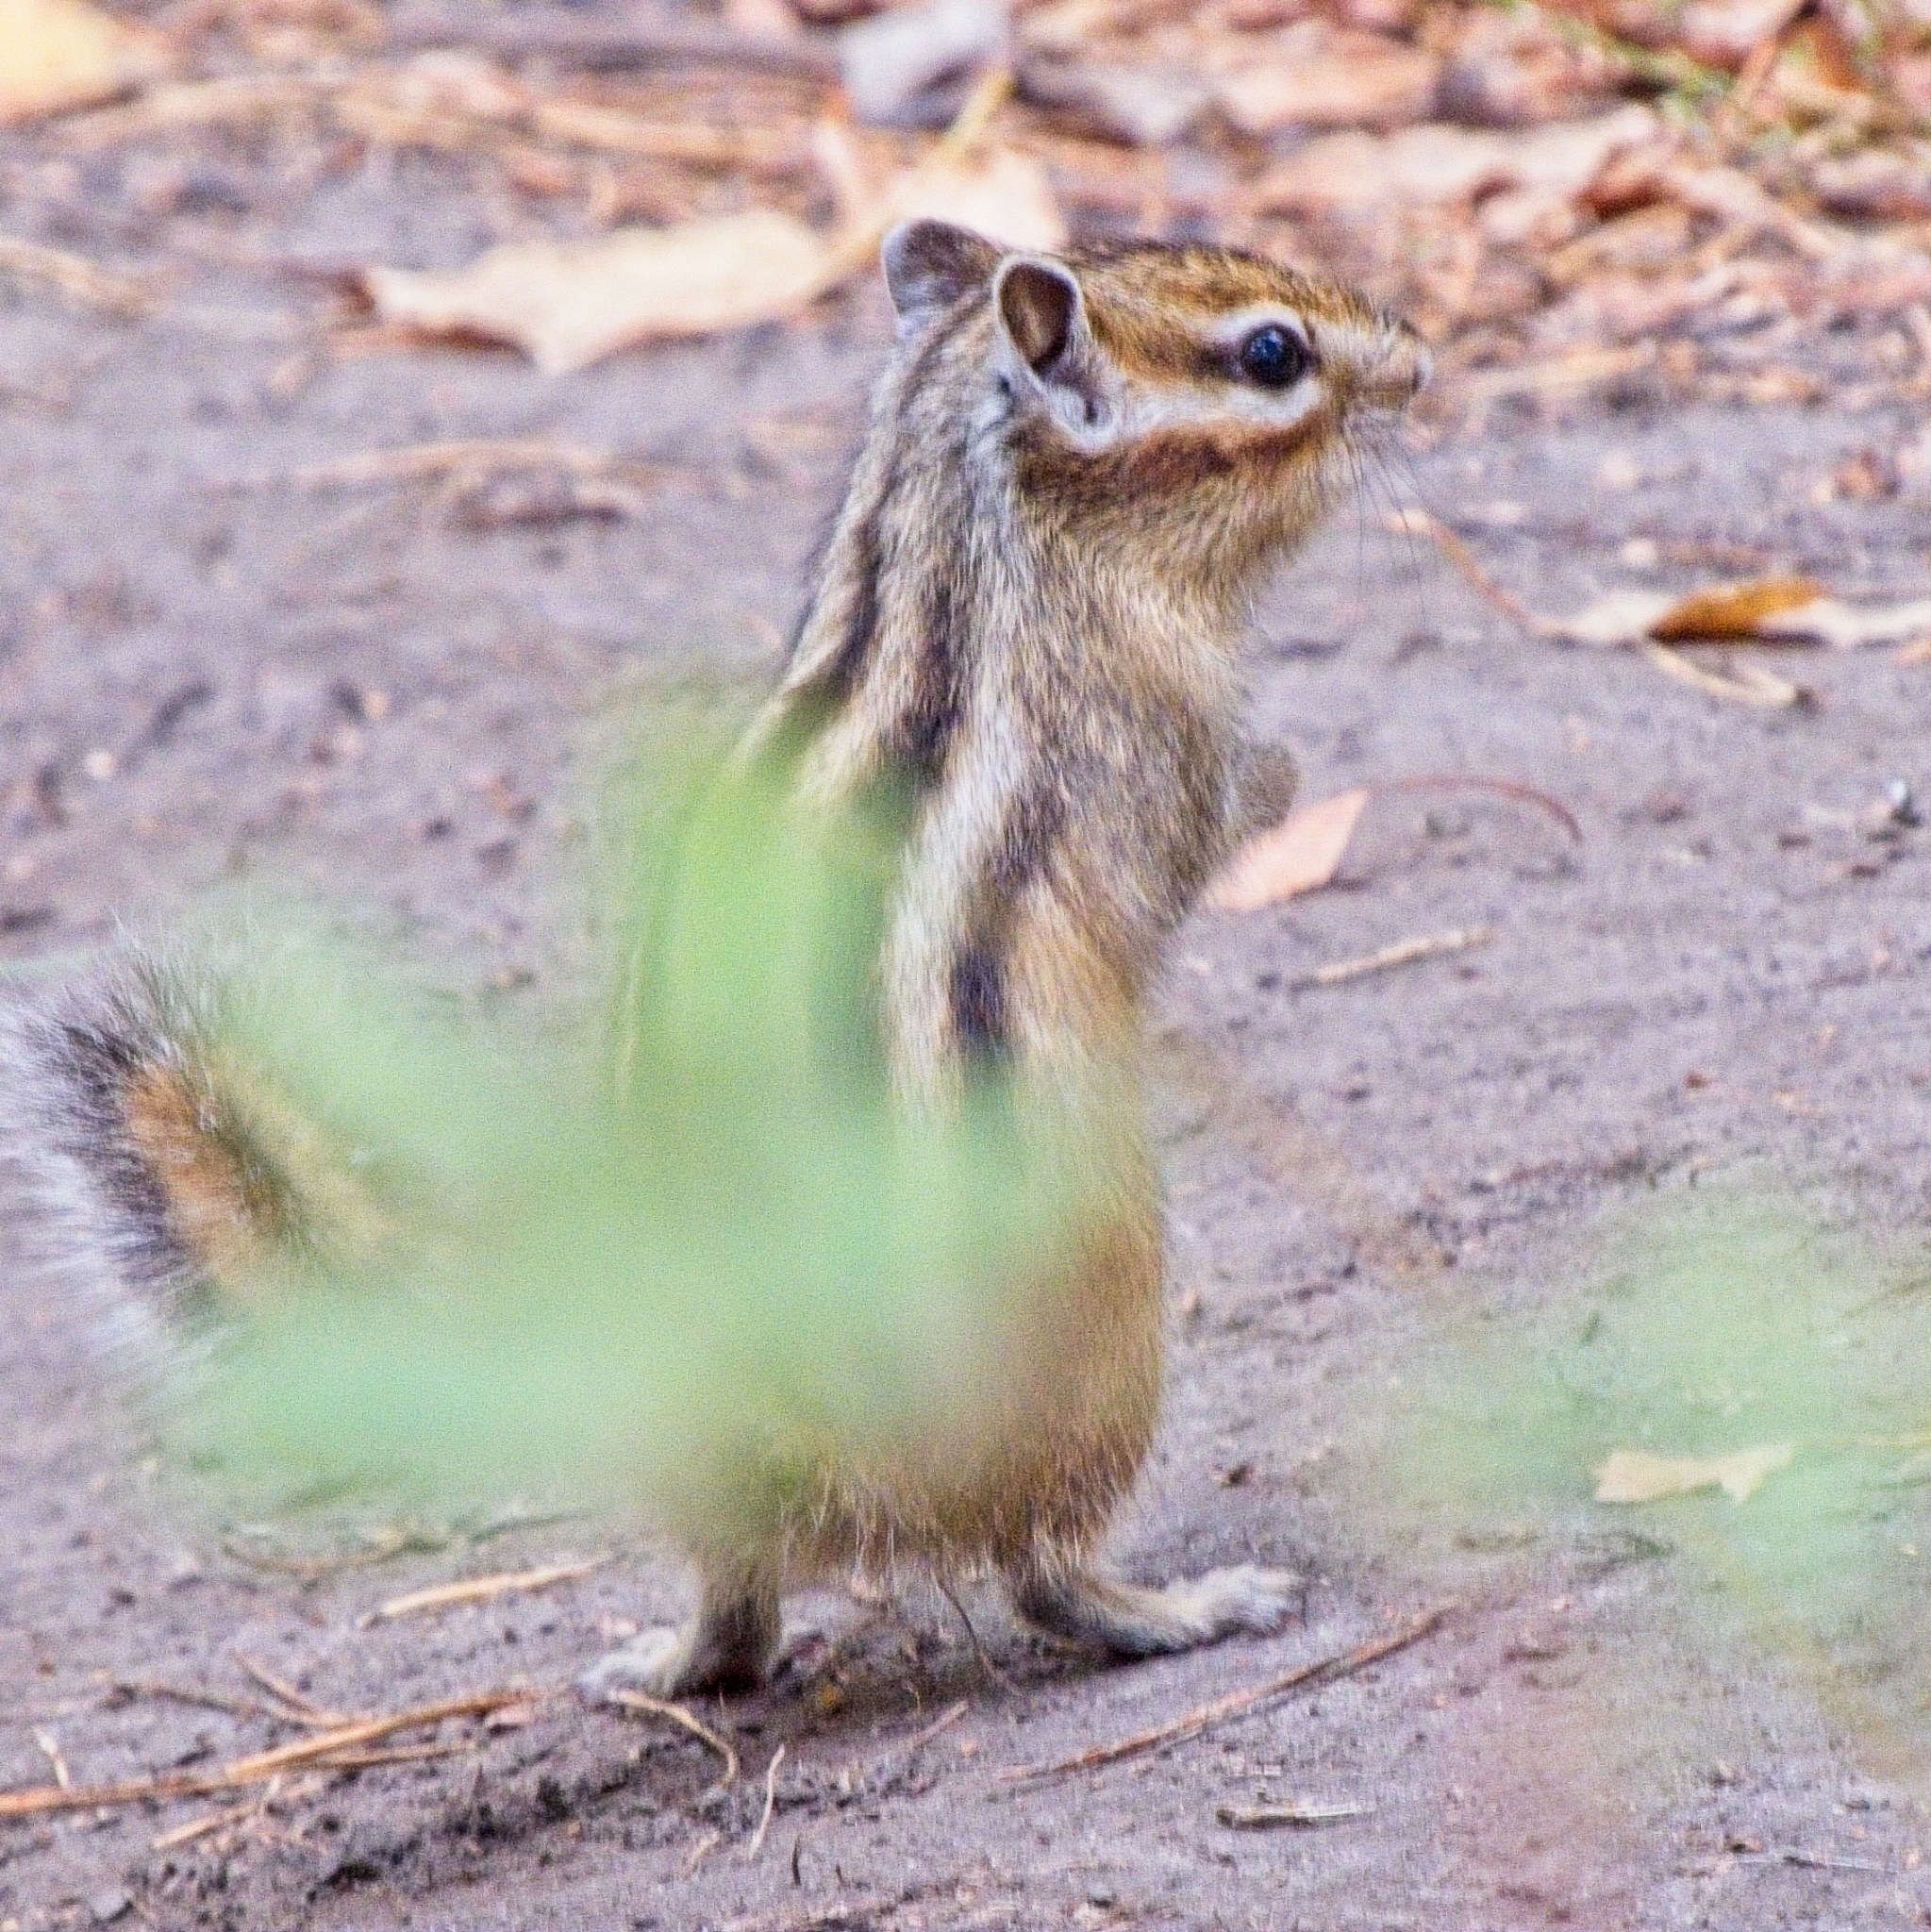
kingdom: Animalia
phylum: Chordata
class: Mammalia
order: Rodentia
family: Sciuridae
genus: Tamias
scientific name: Tamias sibiricus
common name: Siberian chipmunk
